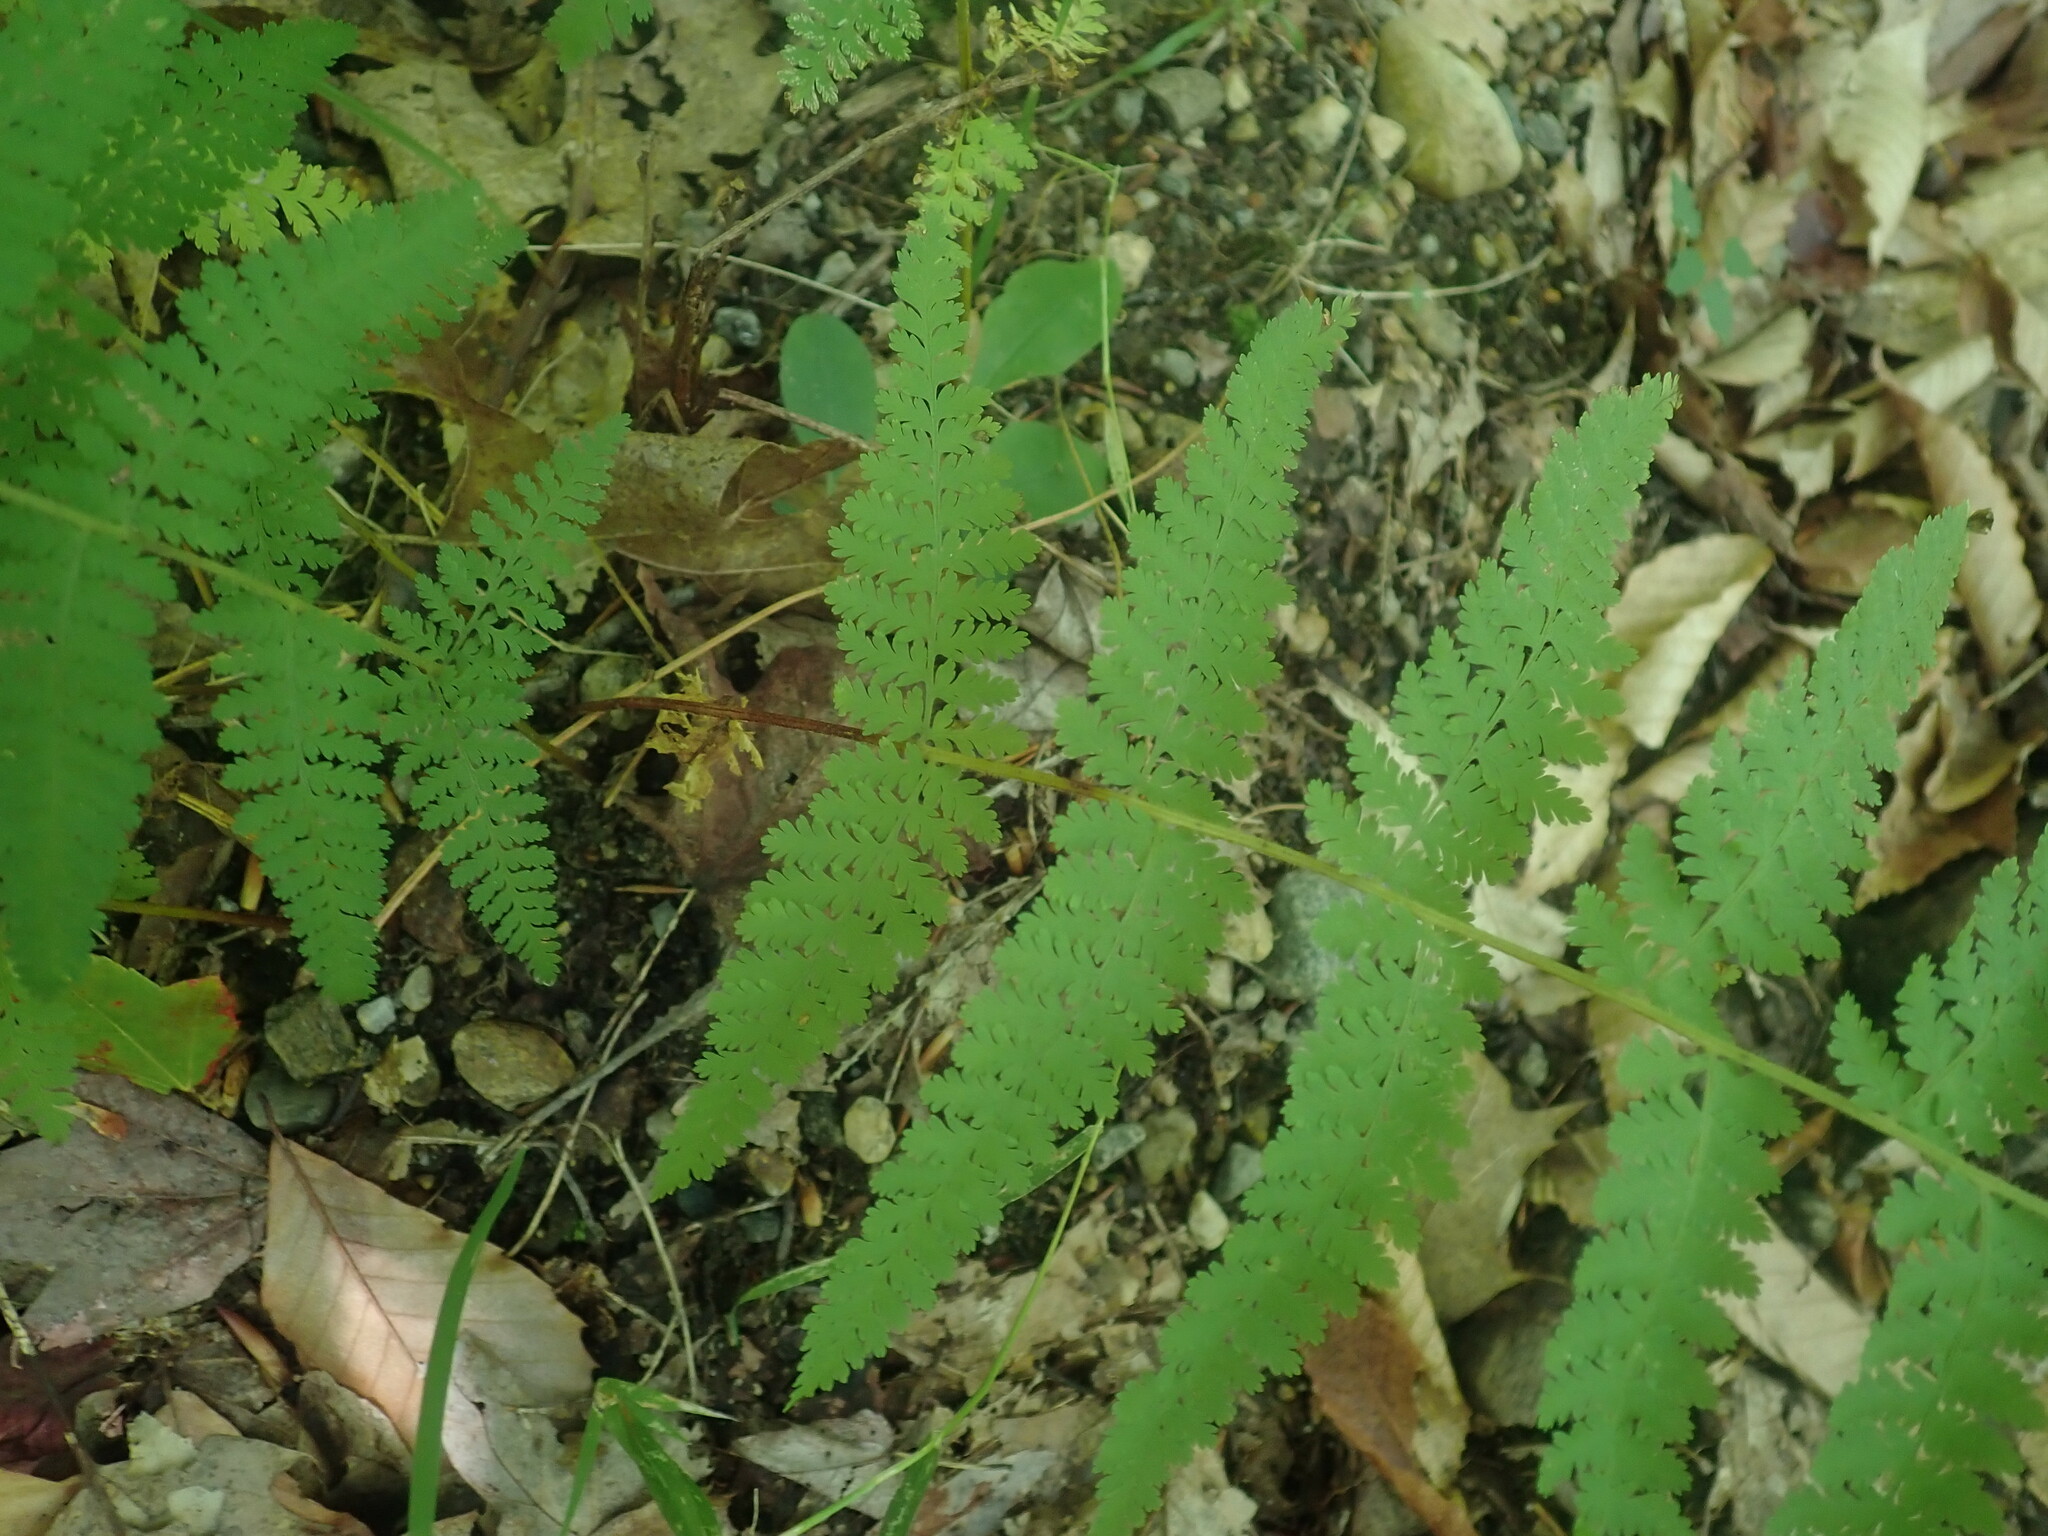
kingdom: Plantae
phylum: Tracheophyta
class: Polypodiopsida
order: Polypodiales
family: Dennstaedtiaceae
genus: Sitobolium
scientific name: Sitobolium punctilobum
